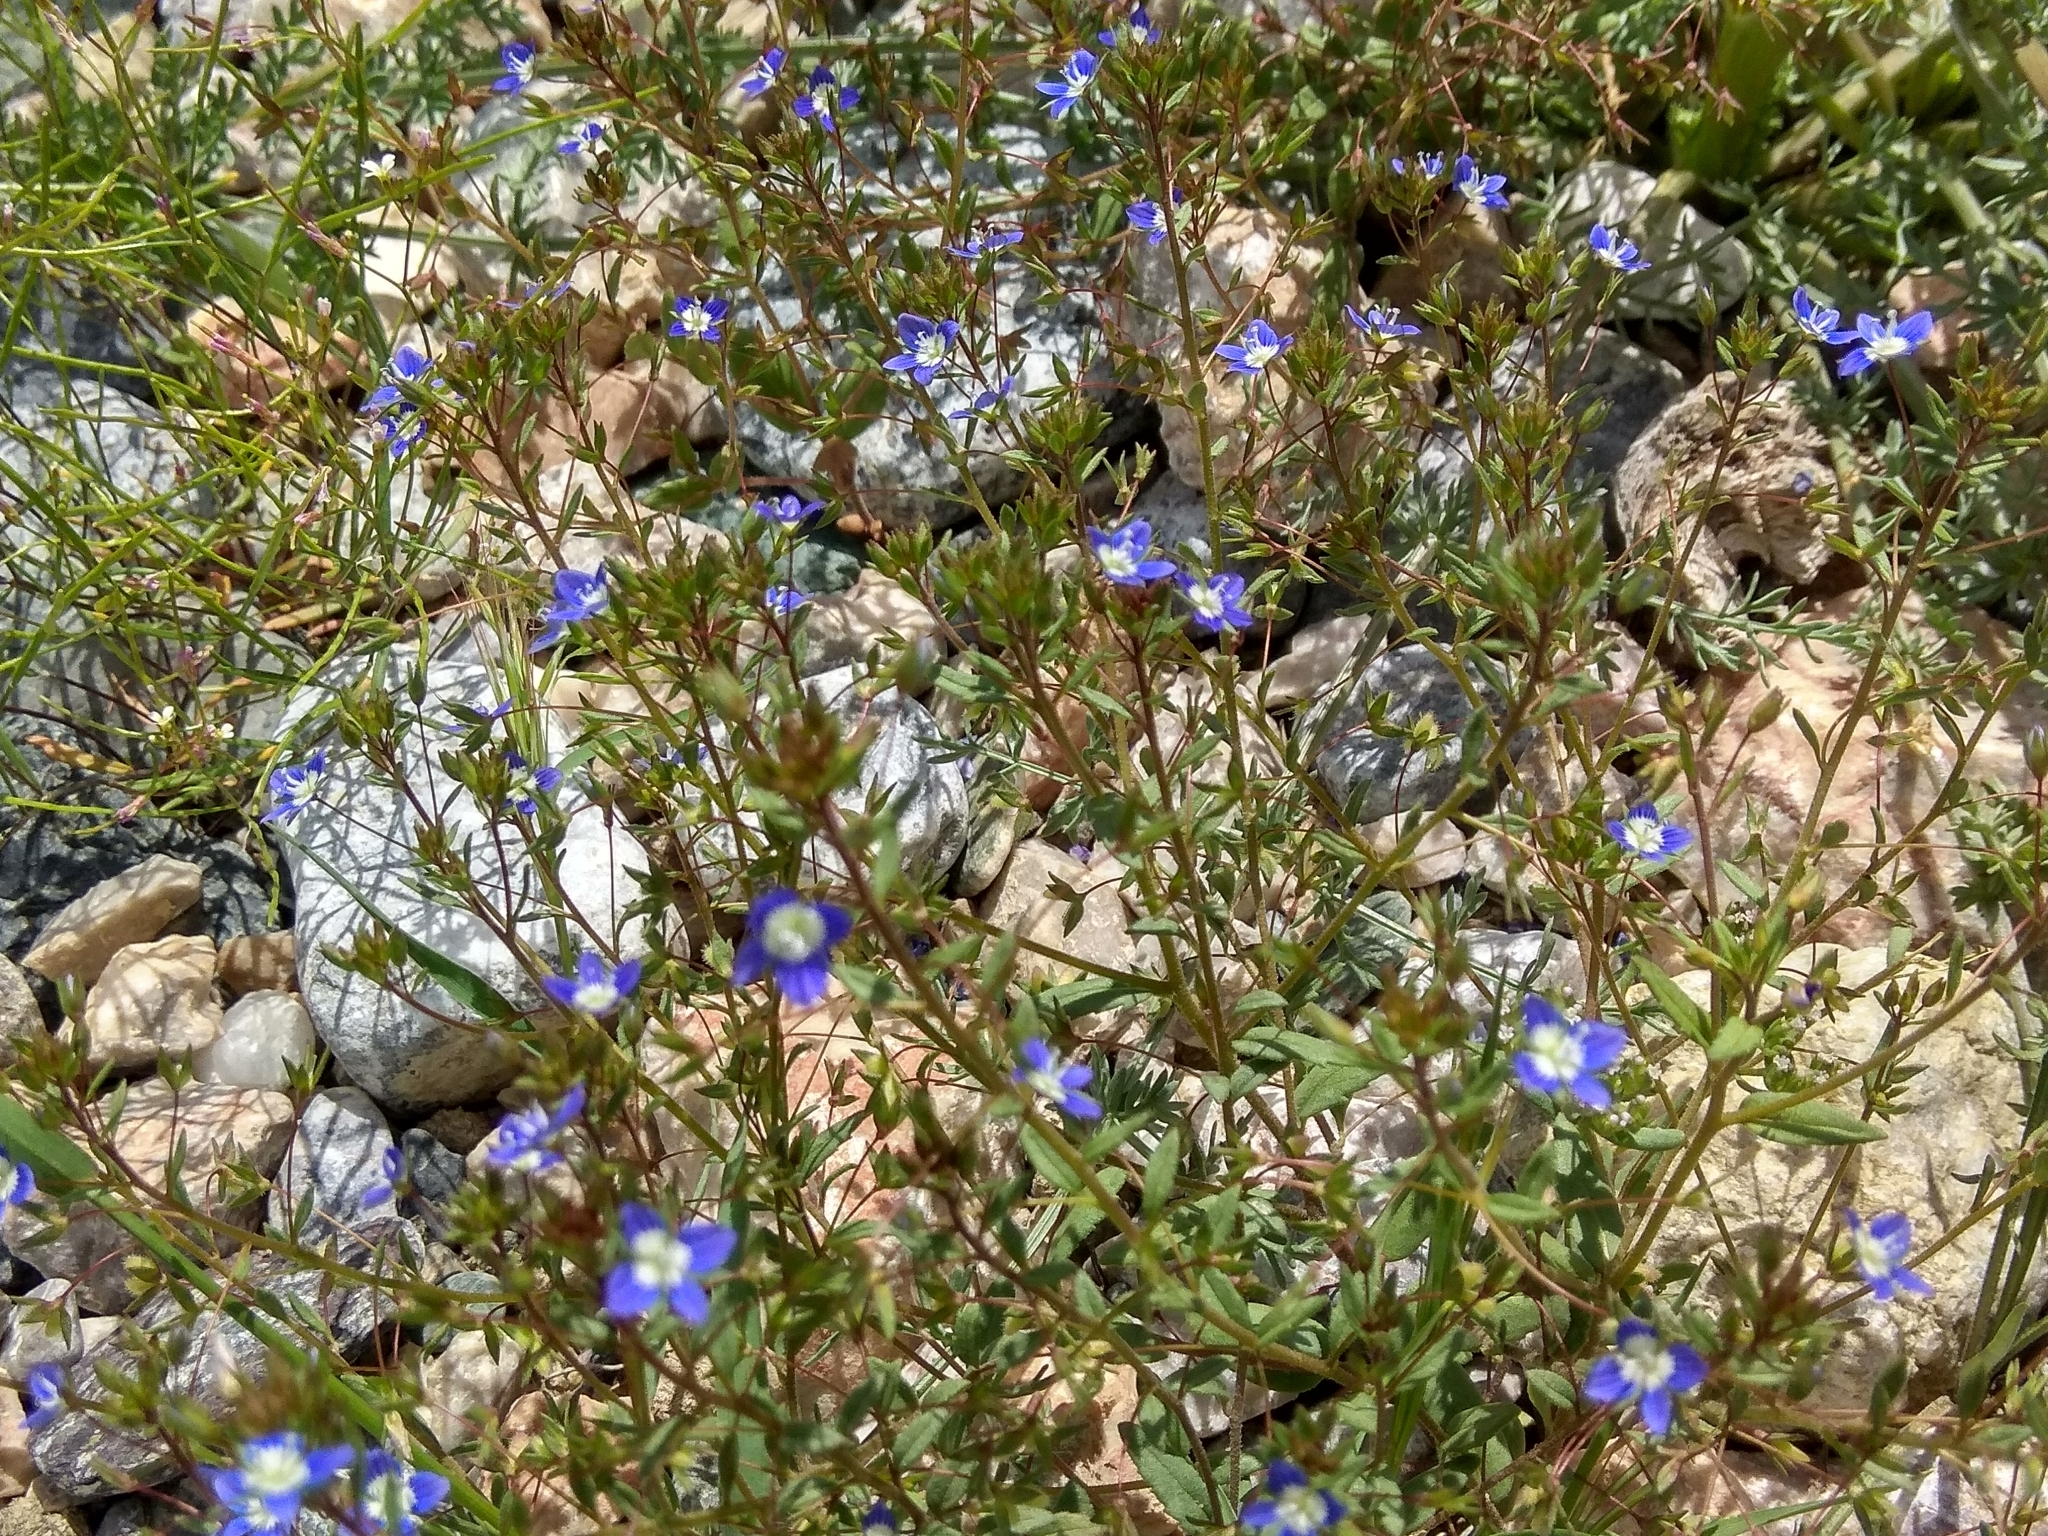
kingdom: Plantae
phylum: Tracheophyta
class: Magnoliopsida
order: Lamiales
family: Plantaginaceae
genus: Veronica
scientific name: Veronica capillipes
